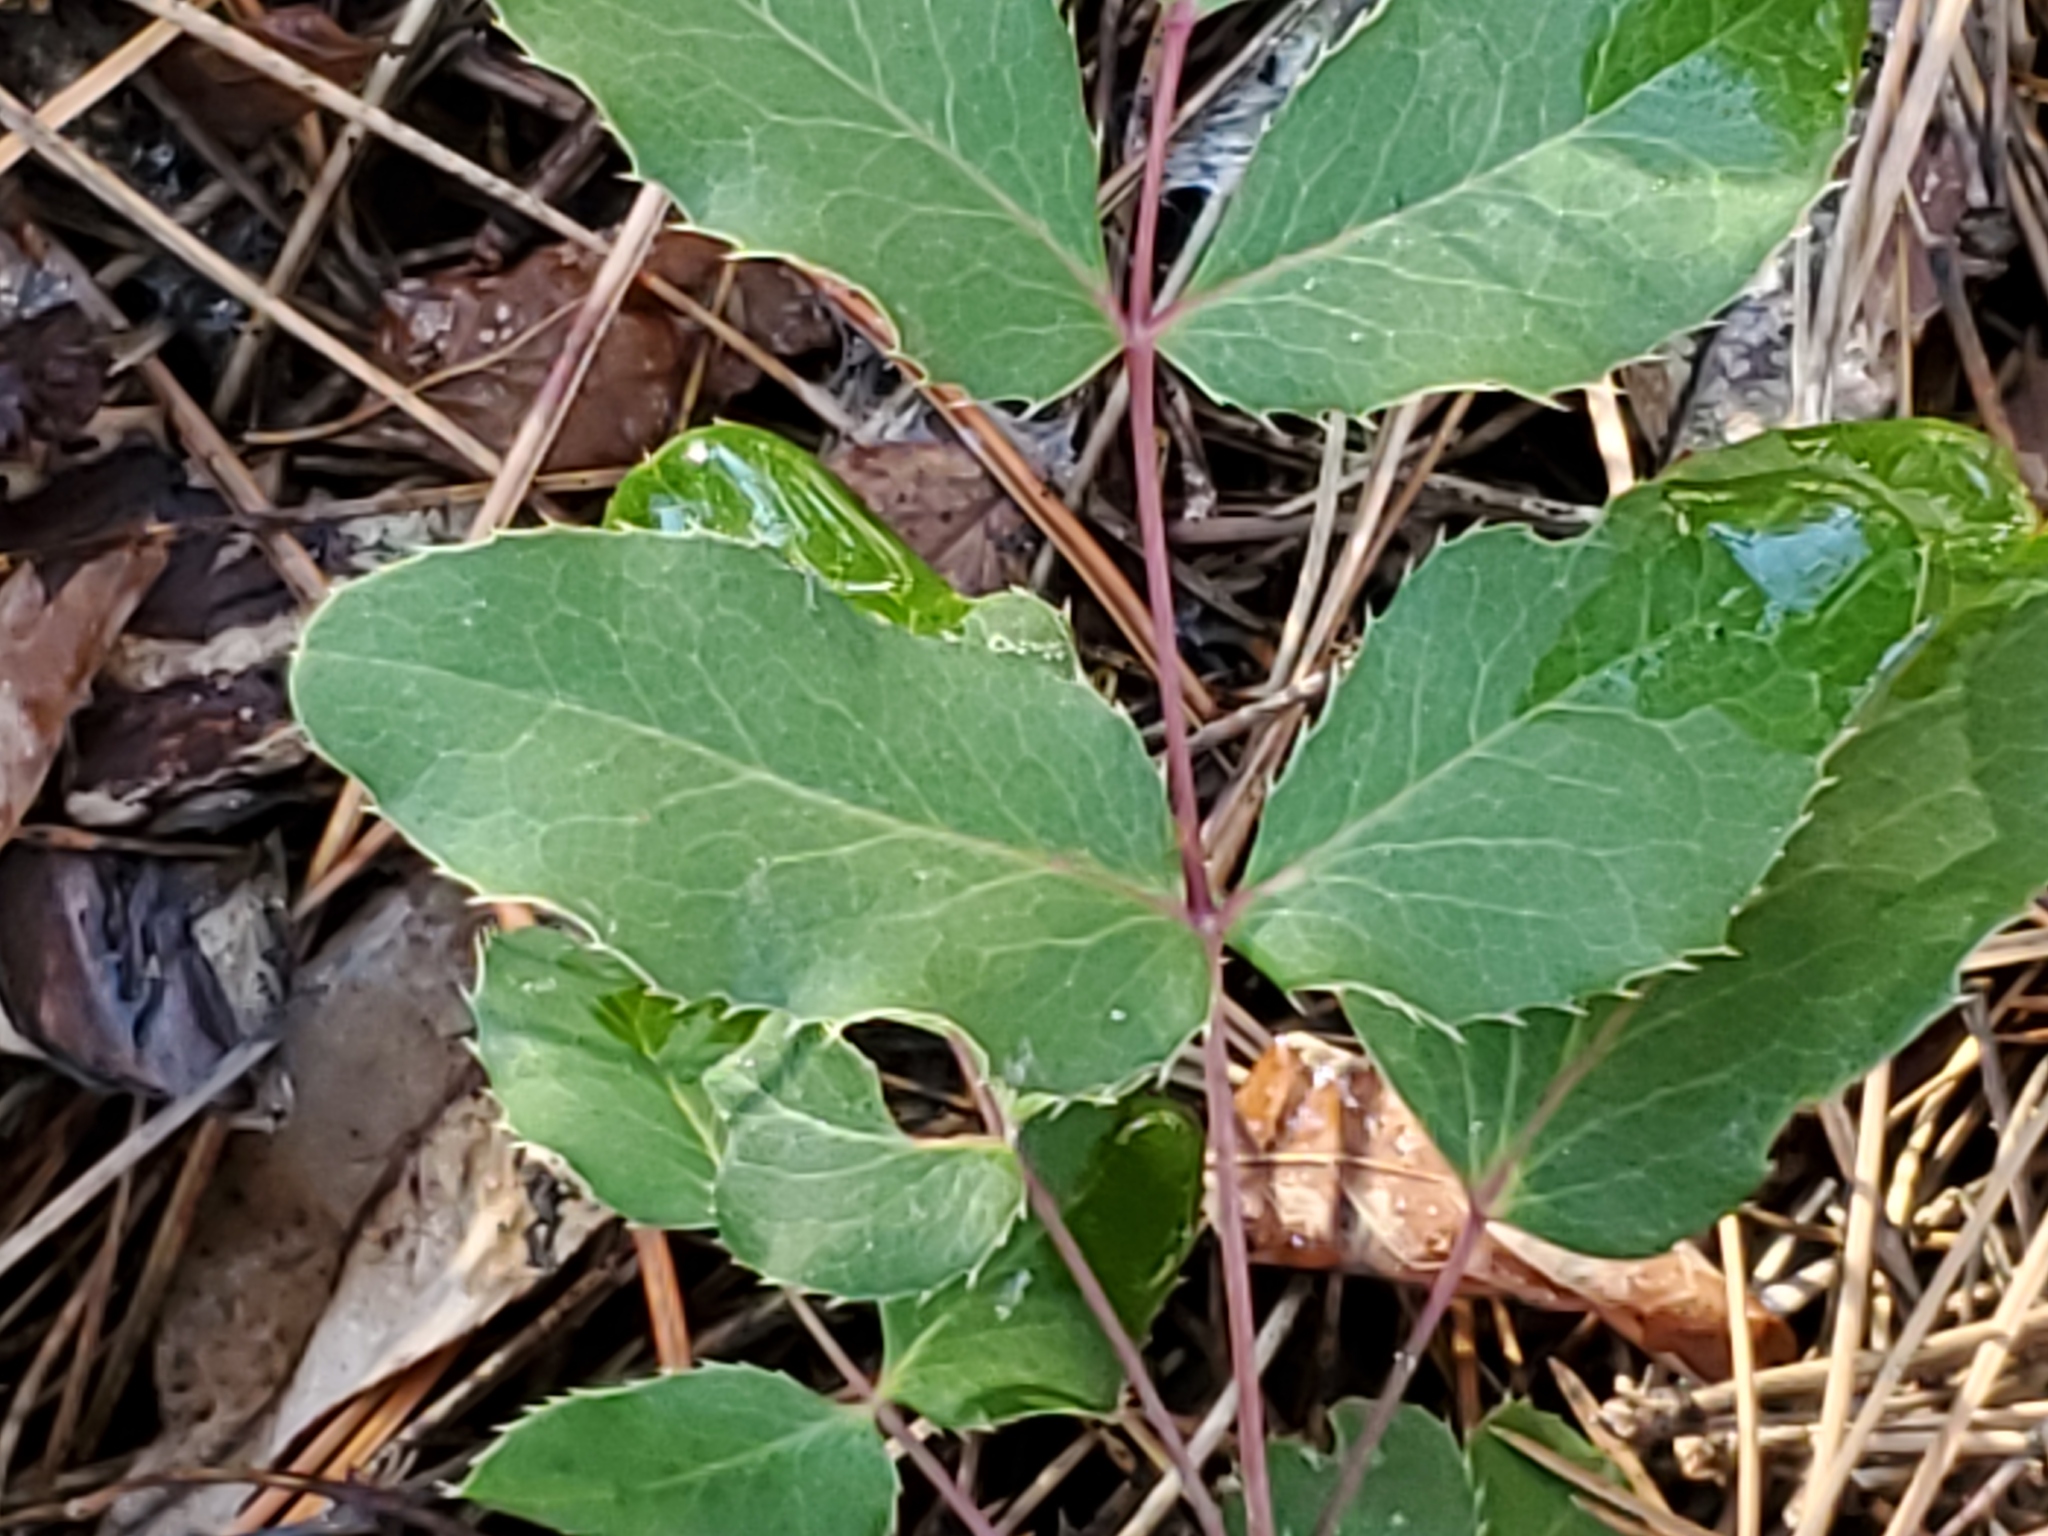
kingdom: Plantae
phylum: Tracheophyta
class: Magnoliopsida
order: Ranunculales
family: Berberidaceae
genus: Mahonia
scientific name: Mahonia repens
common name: Creeping oregon-grape
